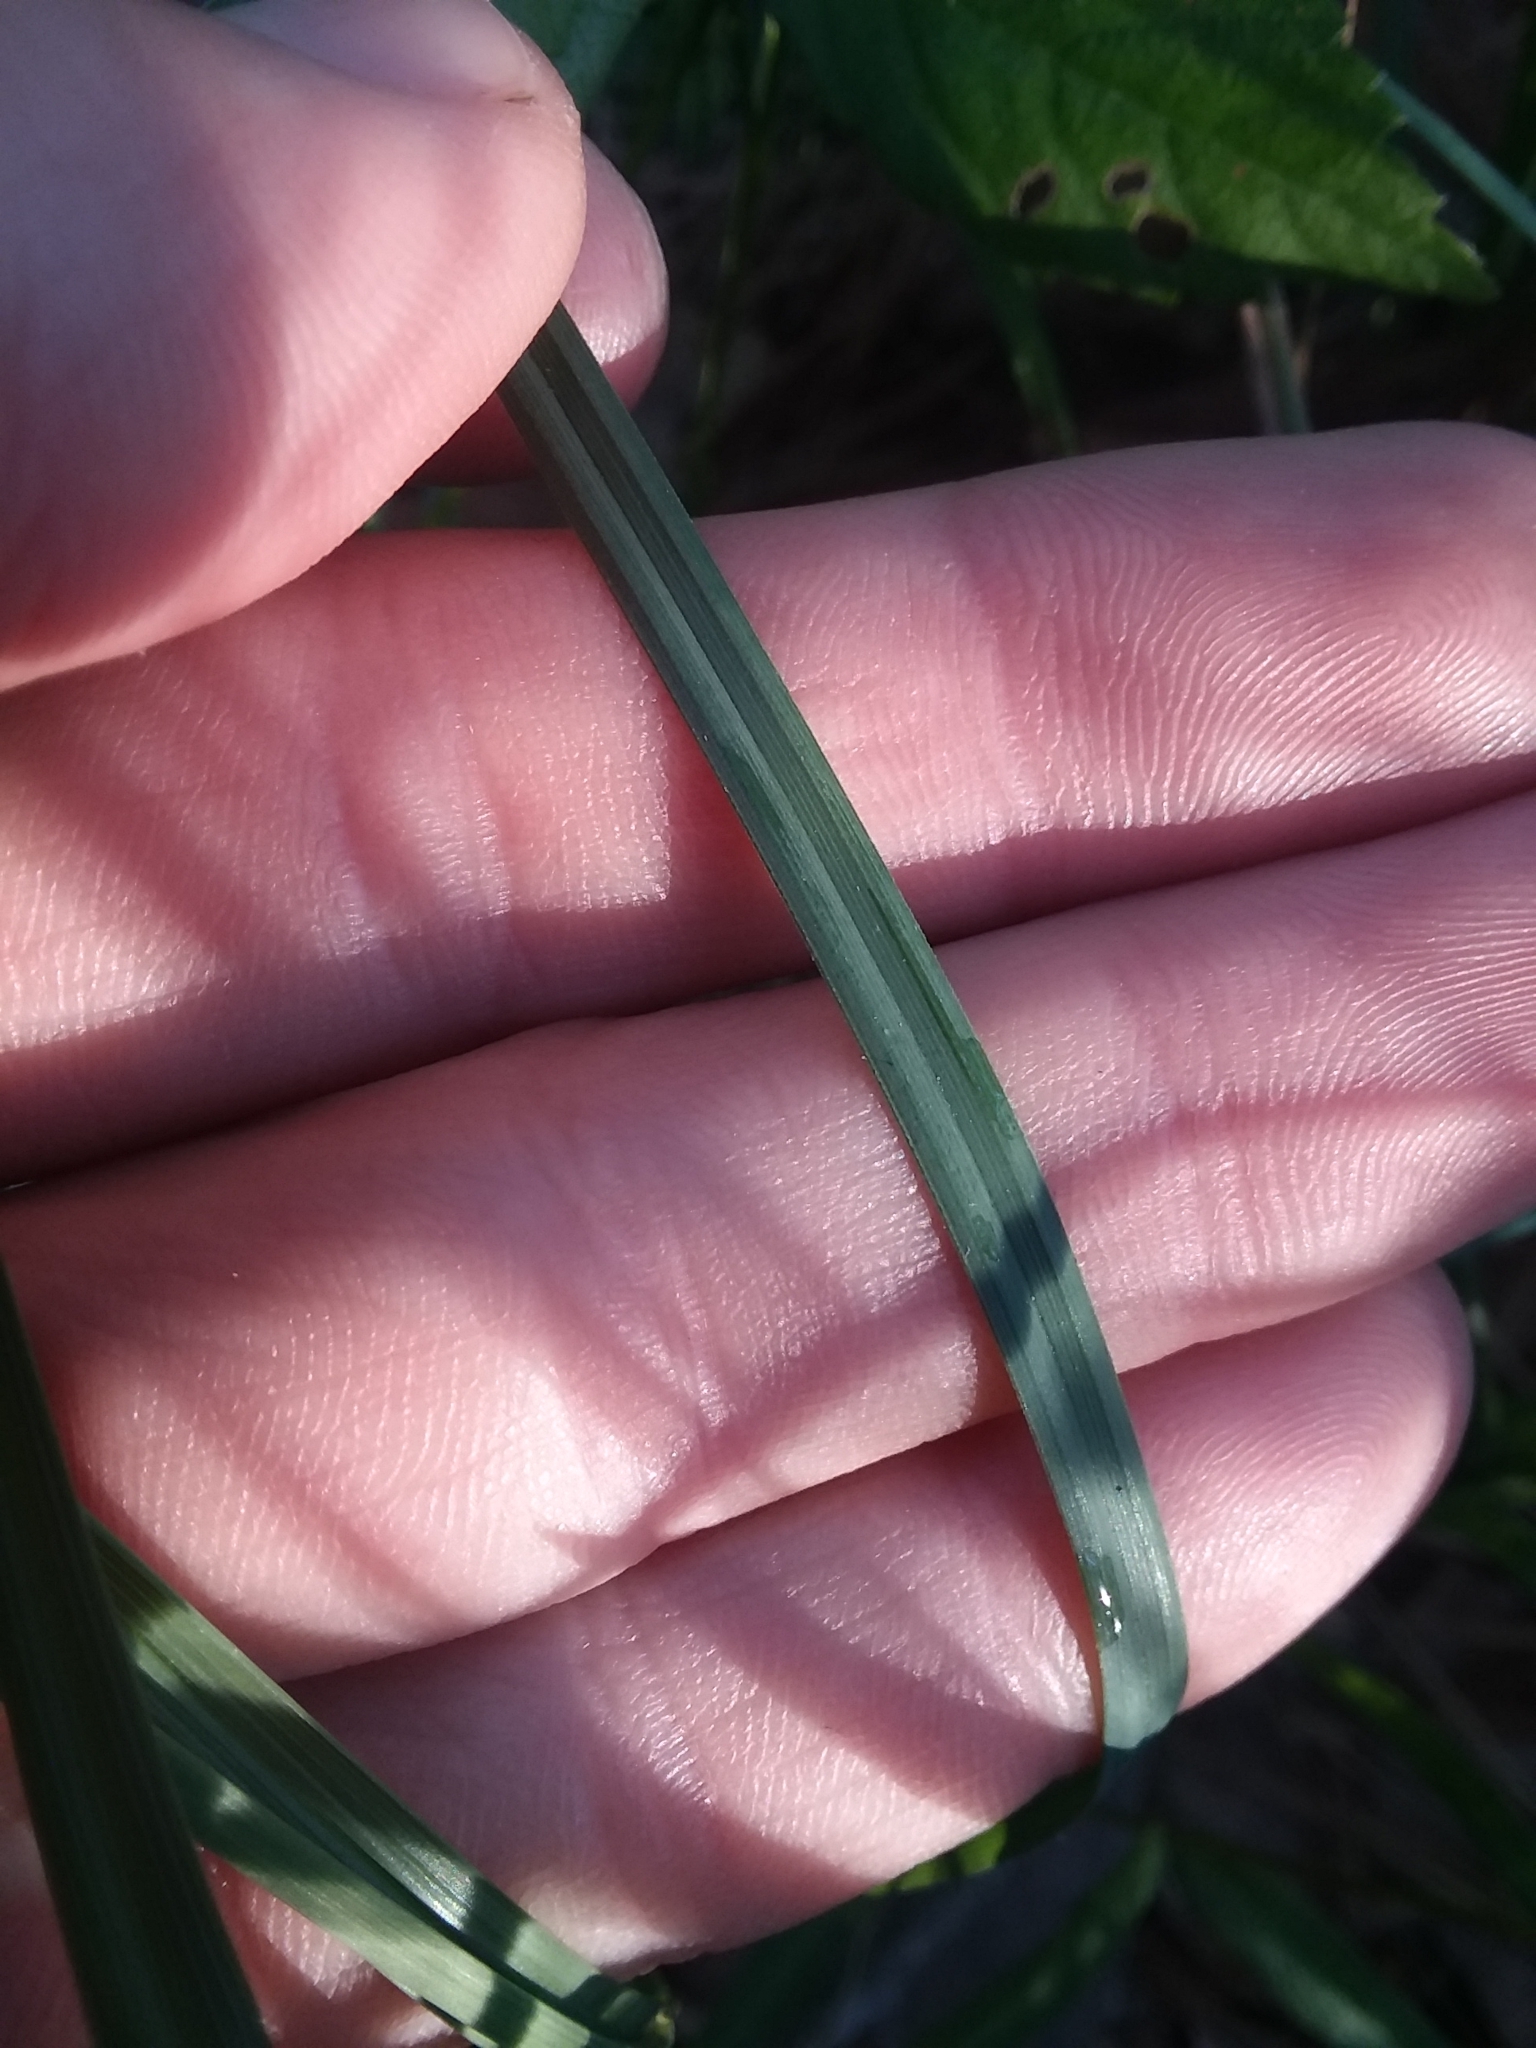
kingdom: Plantae
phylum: Tracheophyta
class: Liliopsida
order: Poales
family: Cyperaceae
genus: Carex
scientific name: Carex meadii
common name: Mead's sedge
